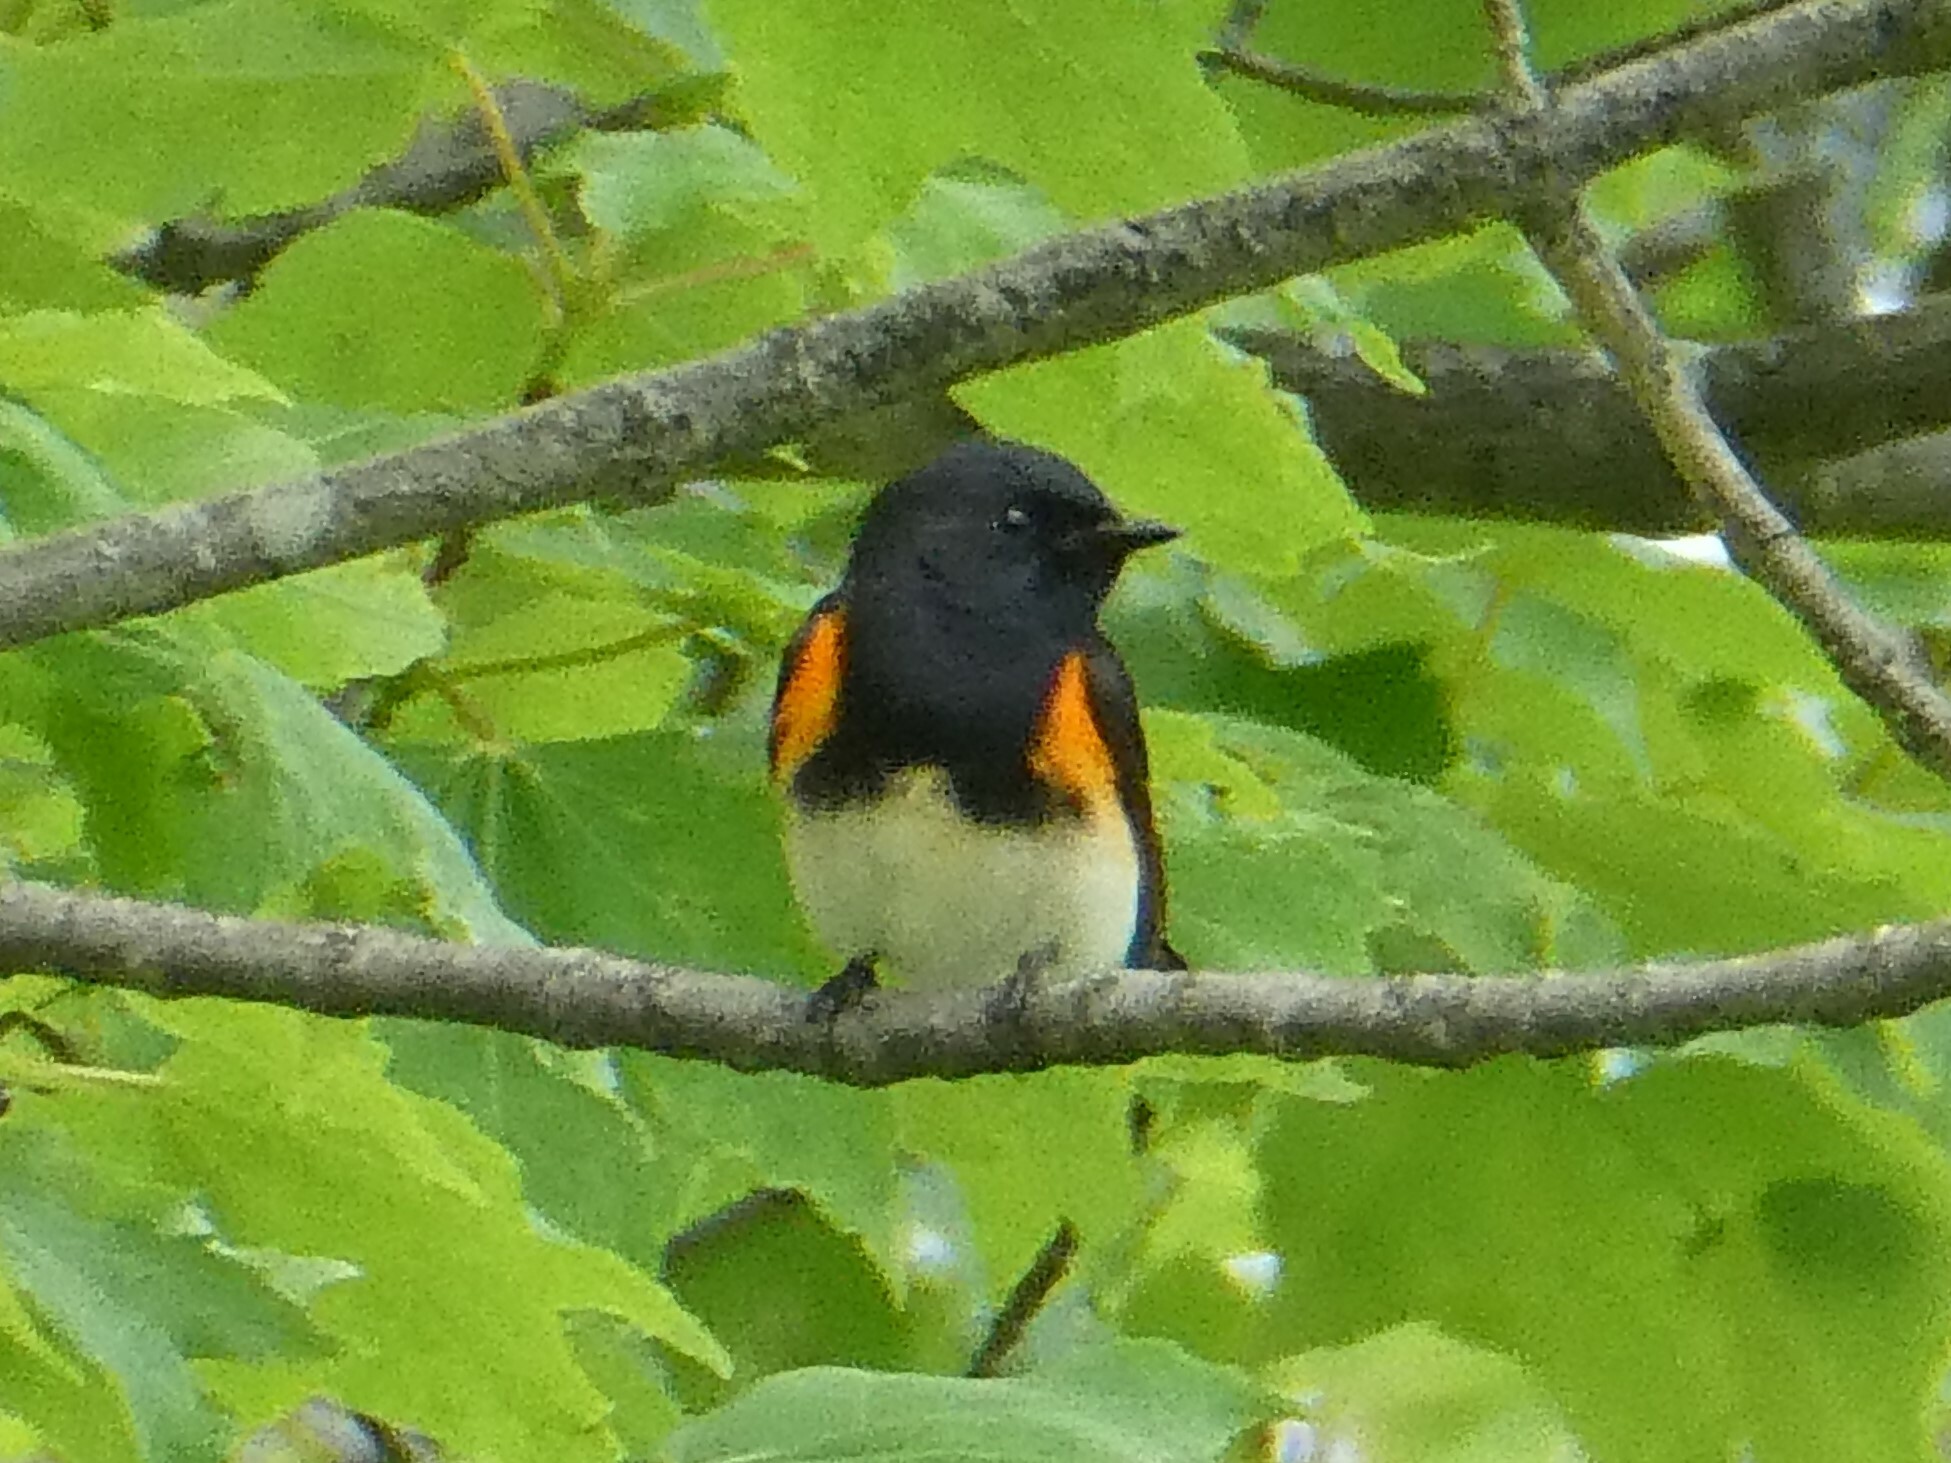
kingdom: Animalia
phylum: Chordata
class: Aves
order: Passeriformes
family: Parulidae
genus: Setophaga
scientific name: Setophaga ruticilla
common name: American redstart
